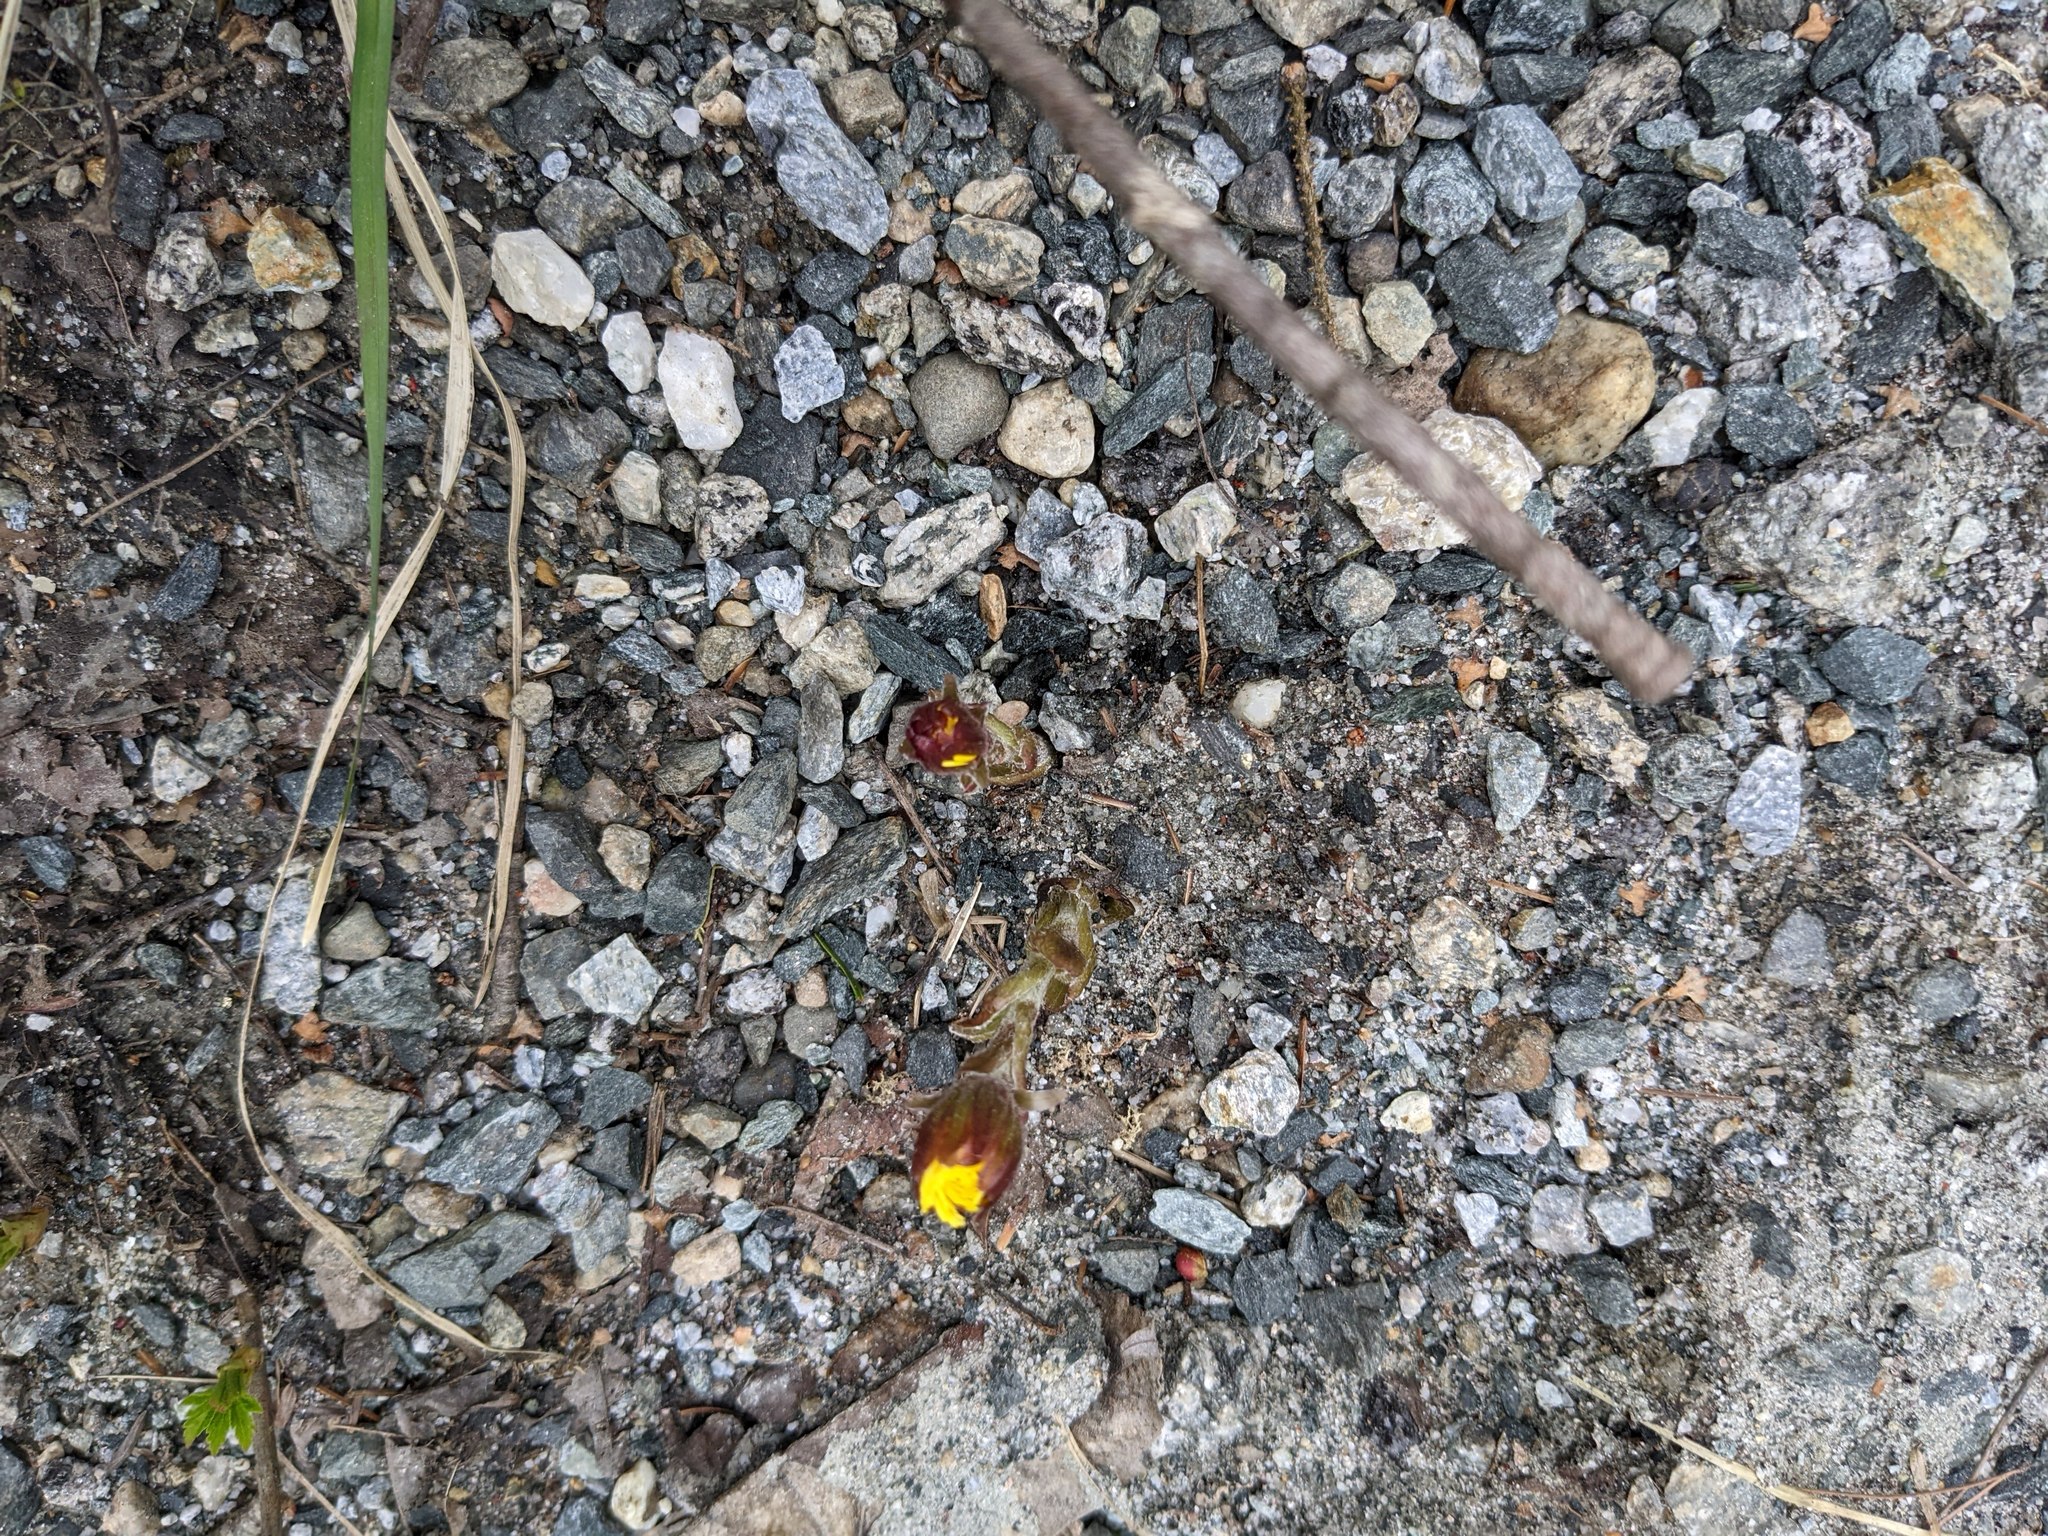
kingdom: Plantae
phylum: Tracheophyta
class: Magnoliopsida
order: Asterales
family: Asteraceae
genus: Tussilago
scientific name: Tussilago farfara
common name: Coltsfoot
